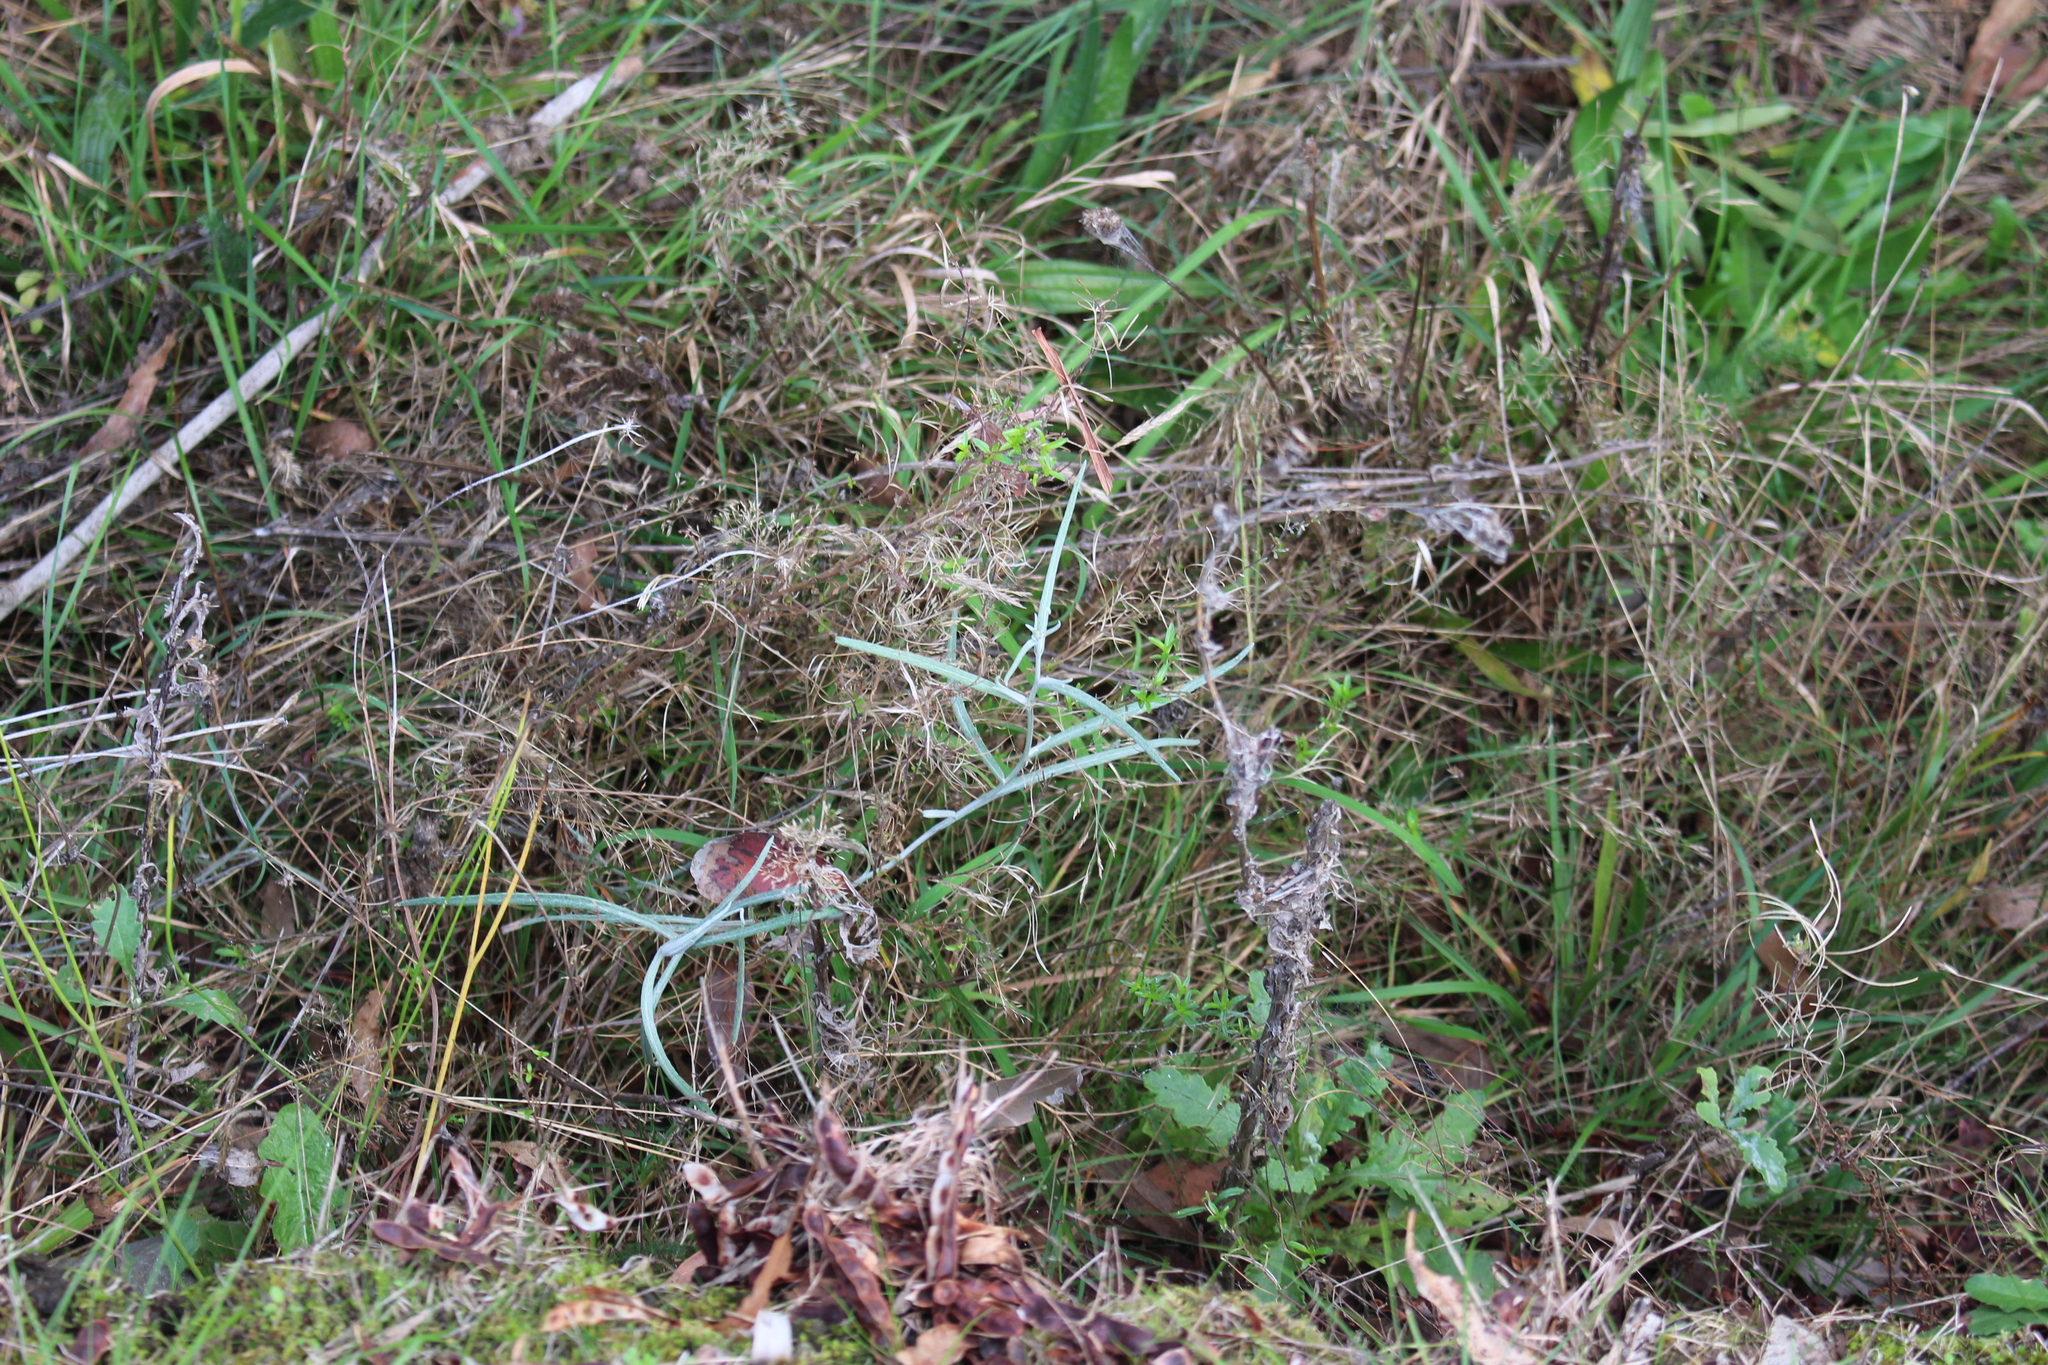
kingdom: Plantae
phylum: Tracheophyta
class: Magnoliopsida
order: Asterales
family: Asteraceae
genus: Senecio
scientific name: Senecio quadridentatus
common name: Cotton fireweed
